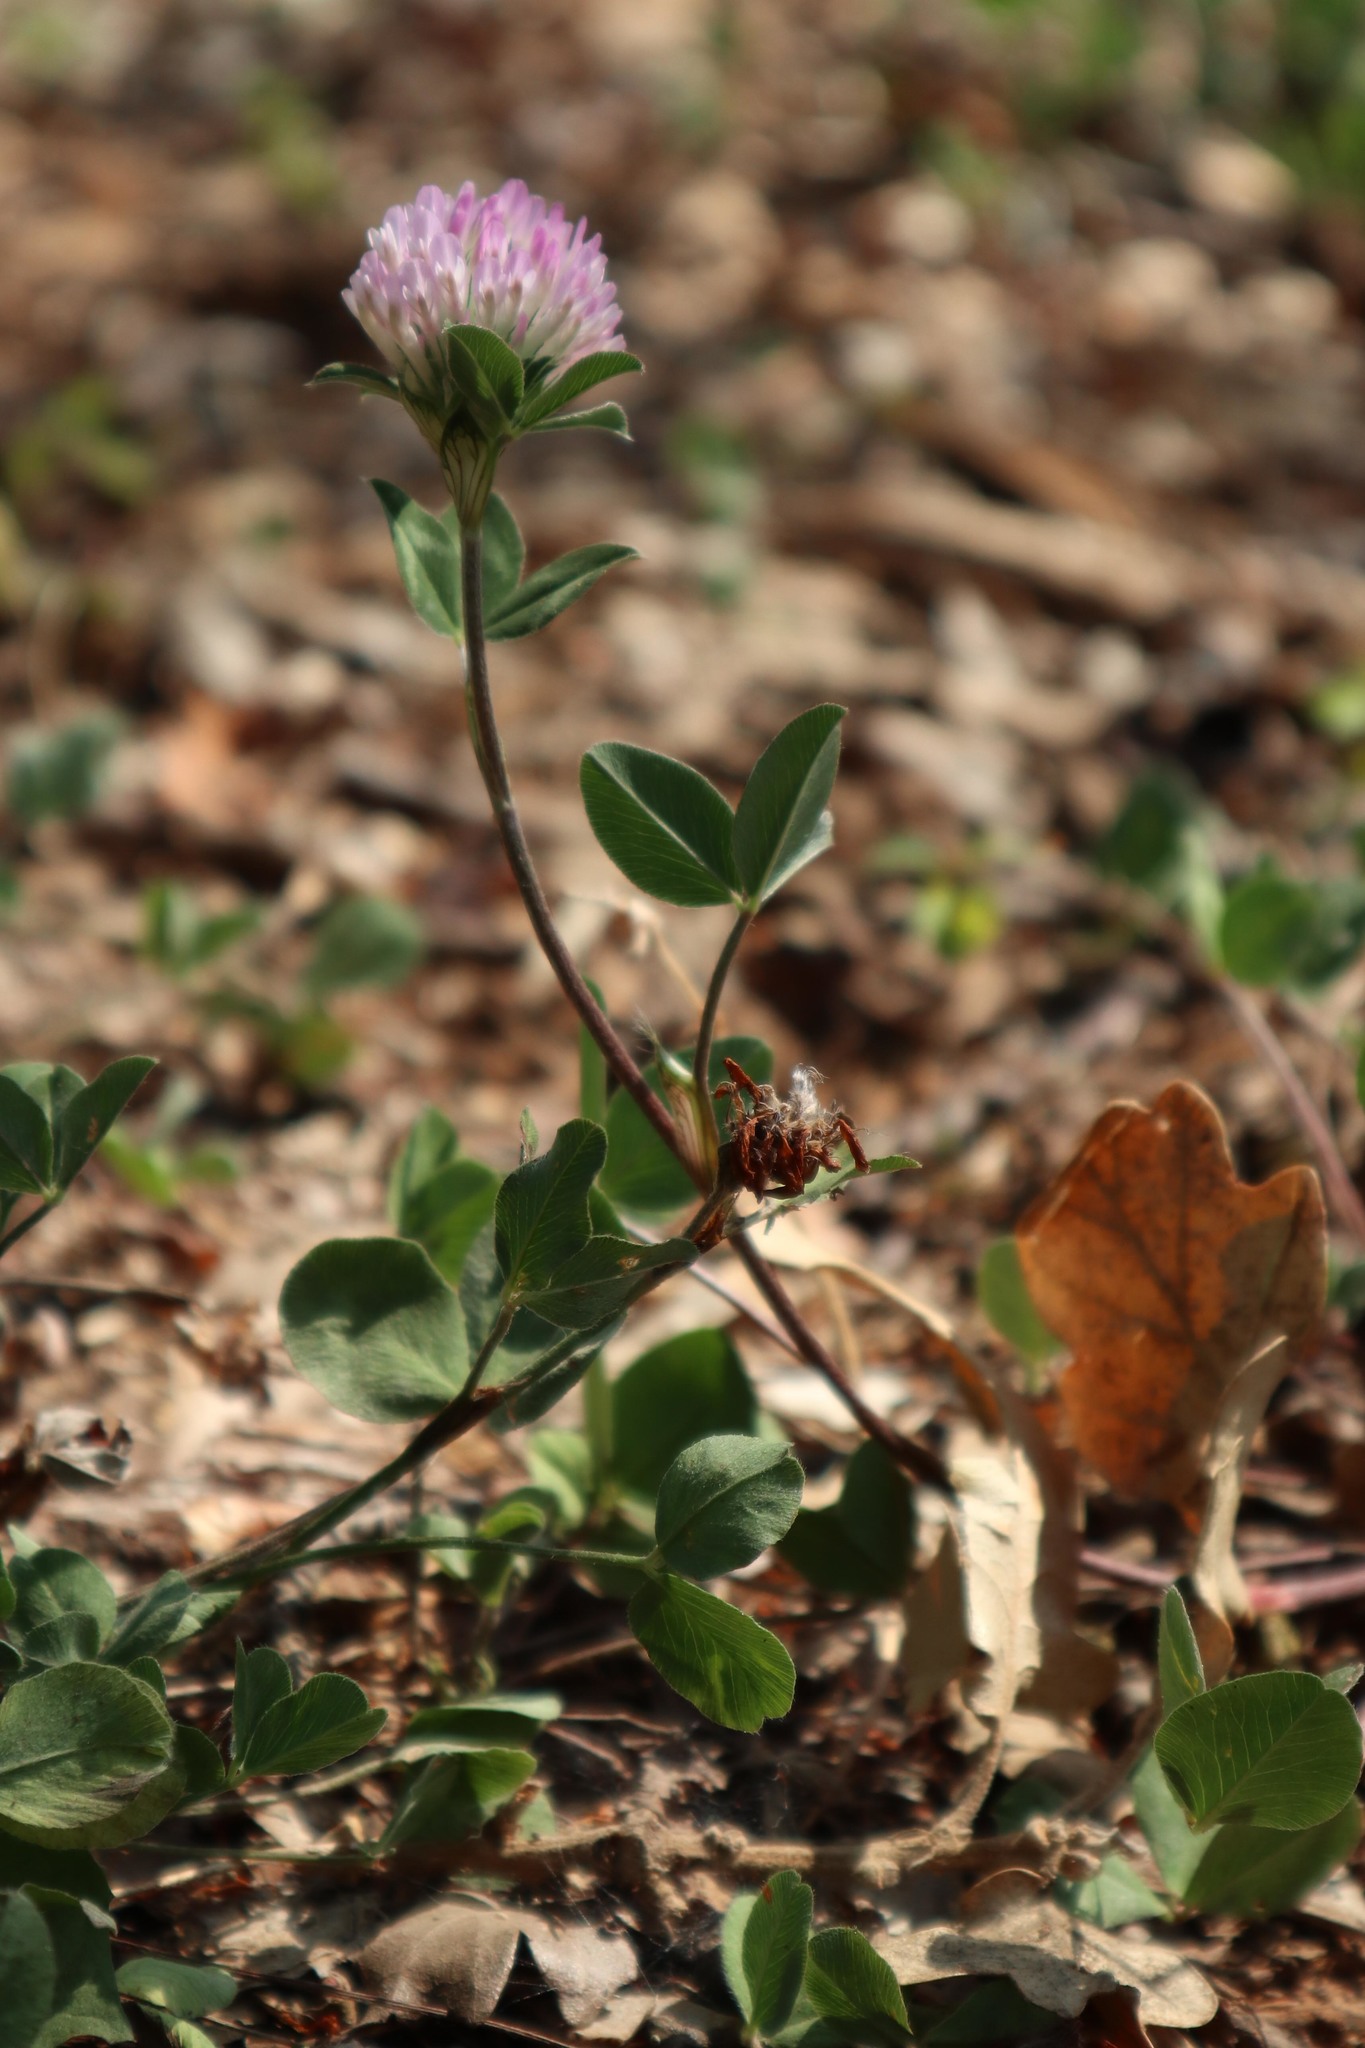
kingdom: Plantae
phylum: Tracheophyta
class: Magnoliopsida
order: Fabales
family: Fabaceae
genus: Trifolium
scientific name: Trifolium pratense
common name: Red clover
